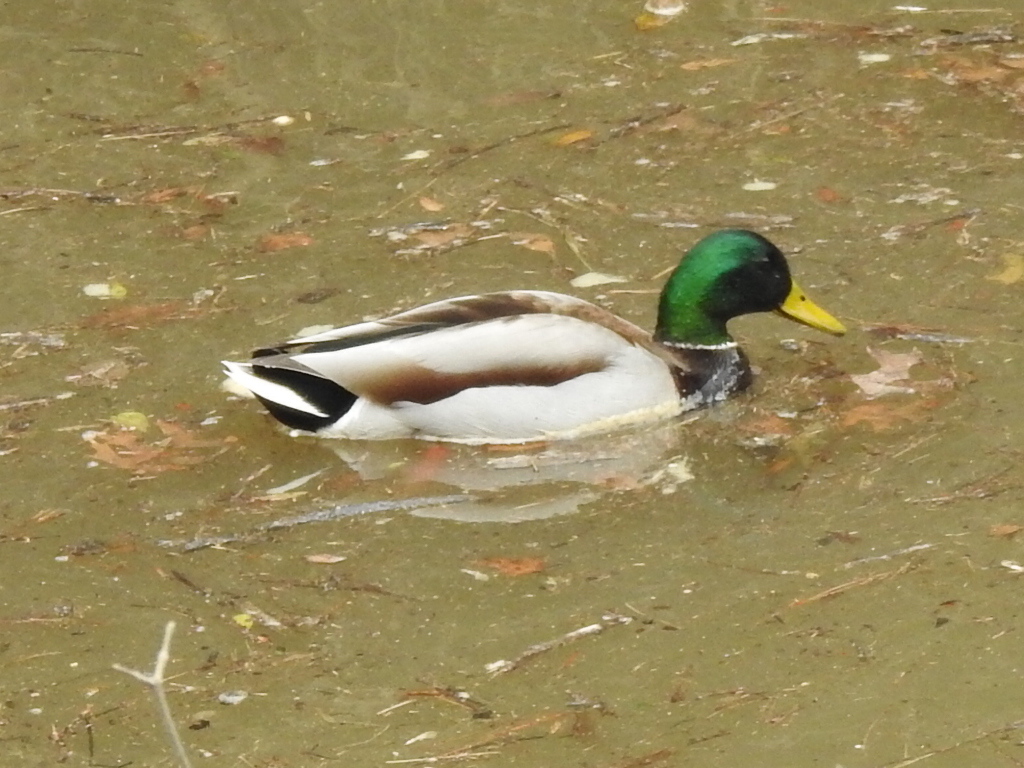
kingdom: Animalia
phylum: Chordata
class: Aves
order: Anseriformes
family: Anatidae
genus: Anas
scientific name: Anas platyrhynchos
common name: Mallard
